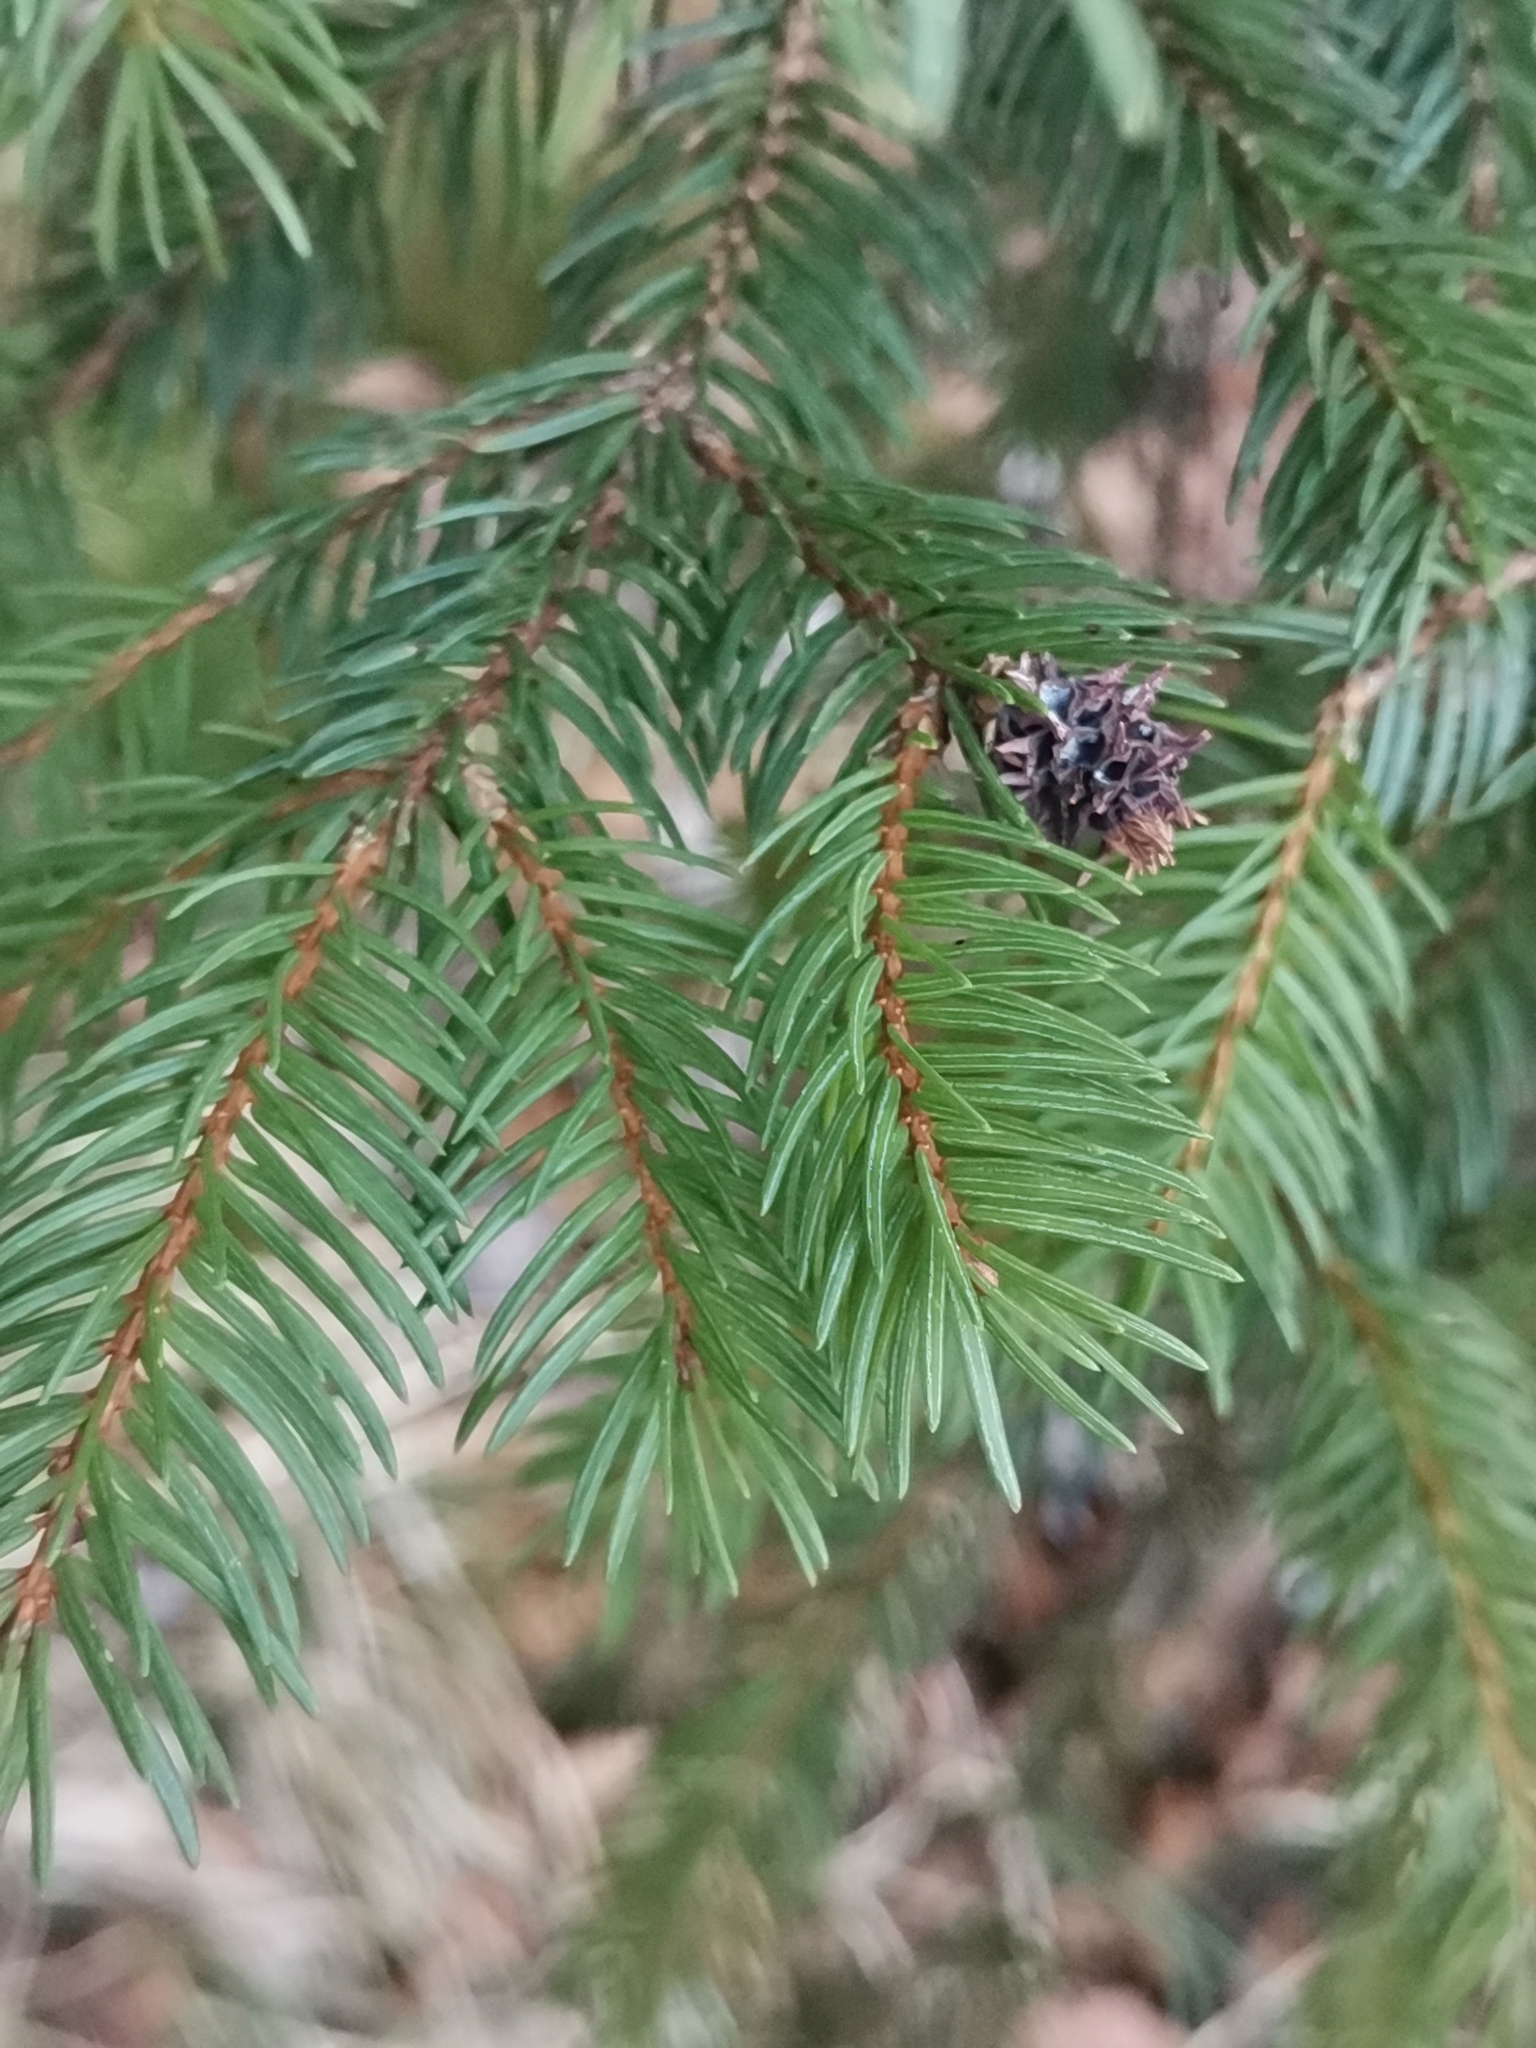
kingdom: Plantae
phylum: Tracheophyta
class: Pinopsida
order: Pinales
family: Pinaceae
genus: Picea
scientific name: Picea abies
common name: Norway spruce
